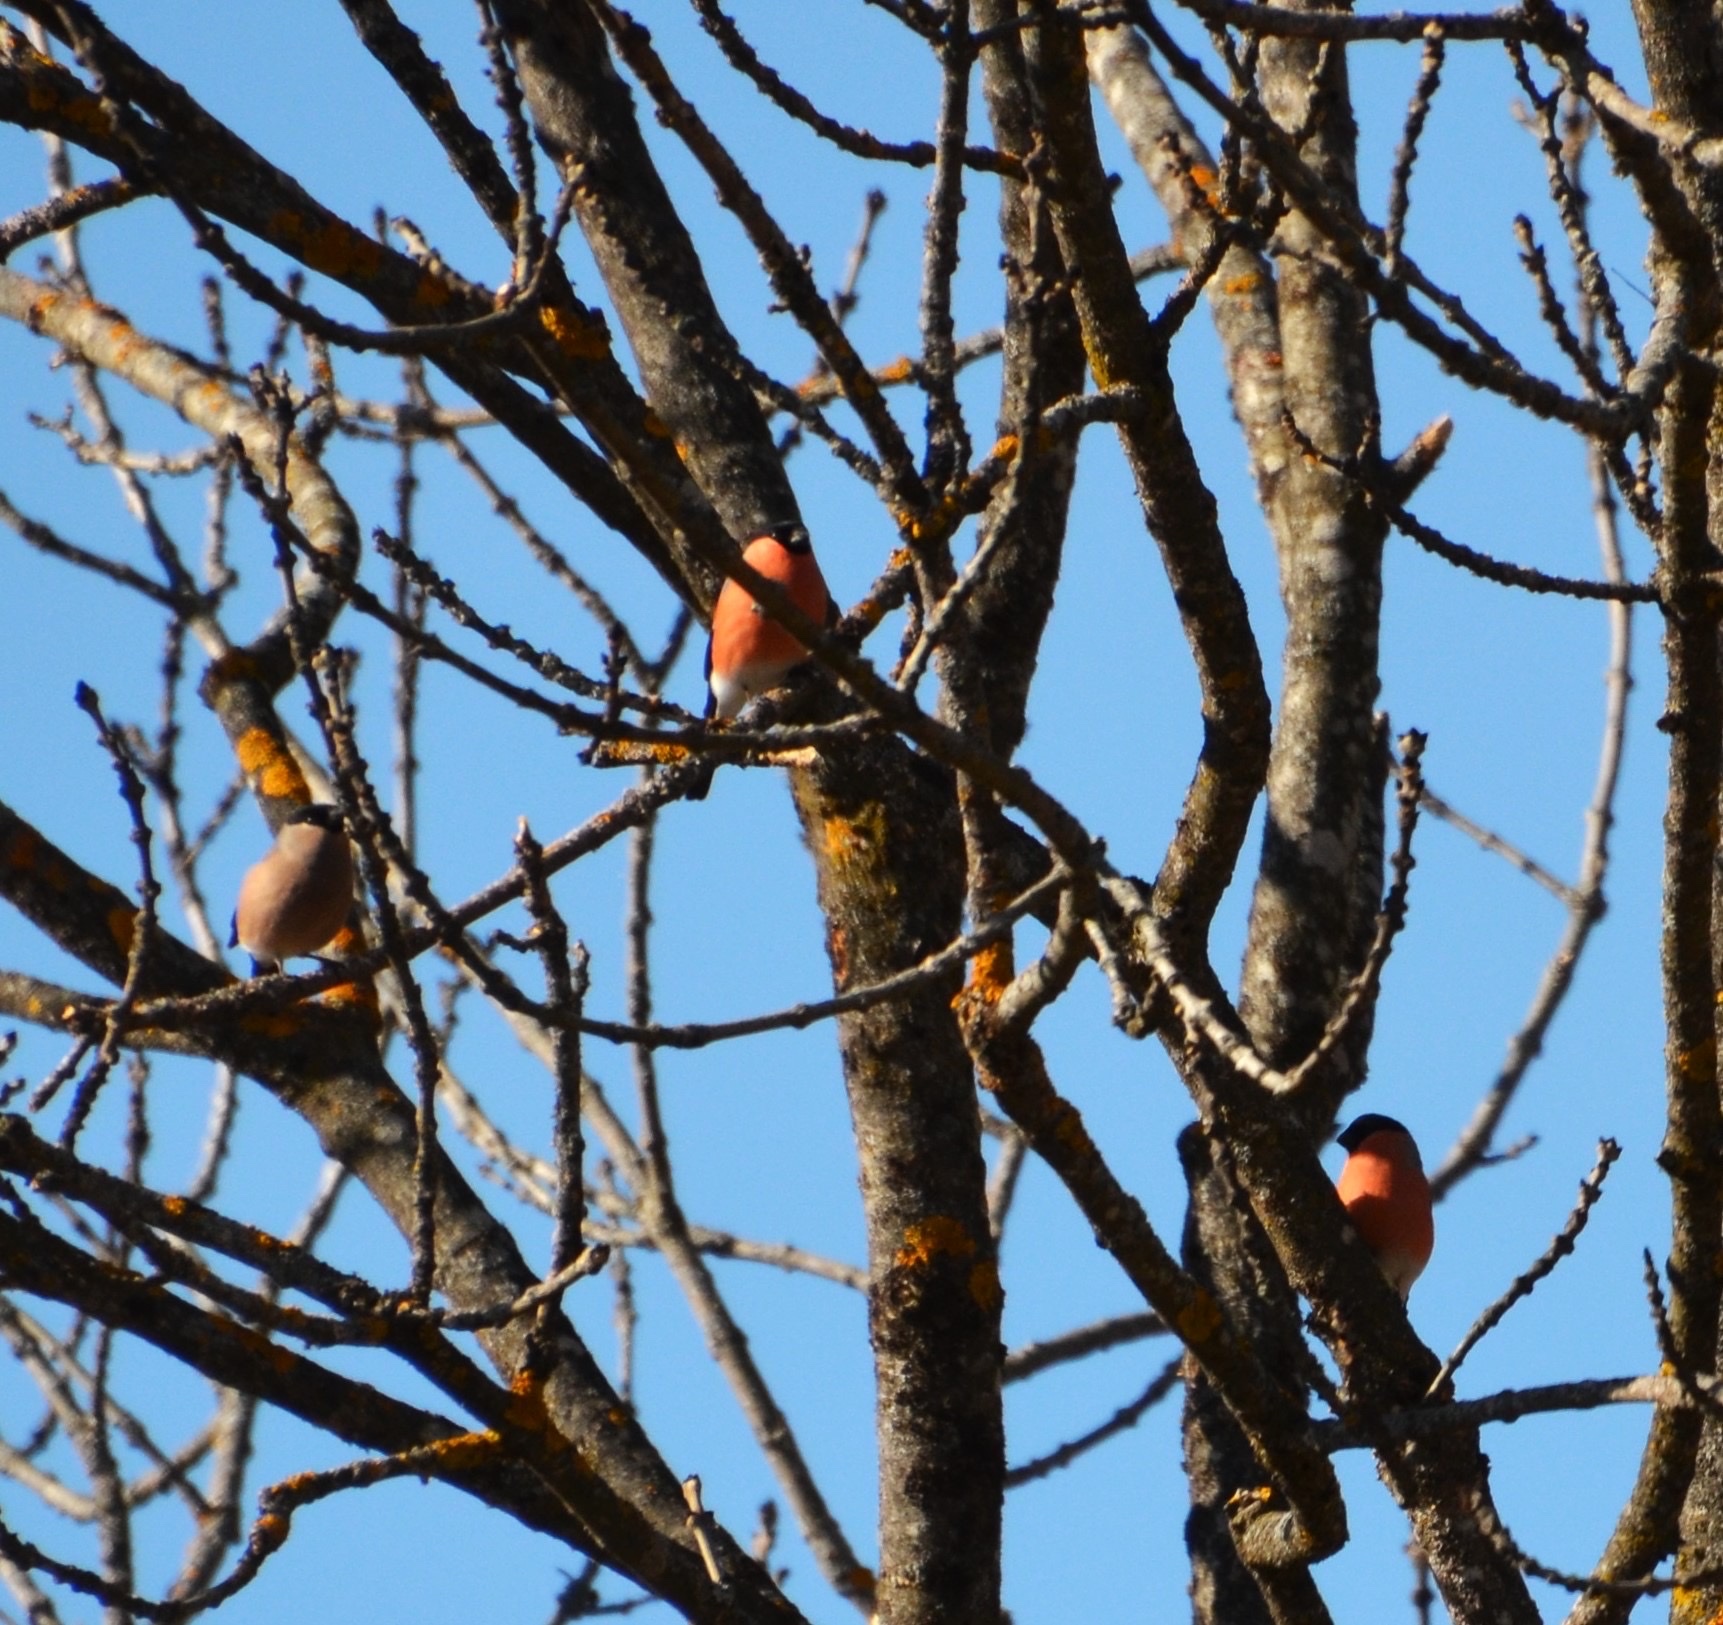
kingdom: Animalia
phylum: Chordata
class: Aves
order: Passeriformes
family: Fringillidae
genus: Pyrrhula
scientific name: Pyrrhula pyrrhula
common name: Eurasian bullfinch
